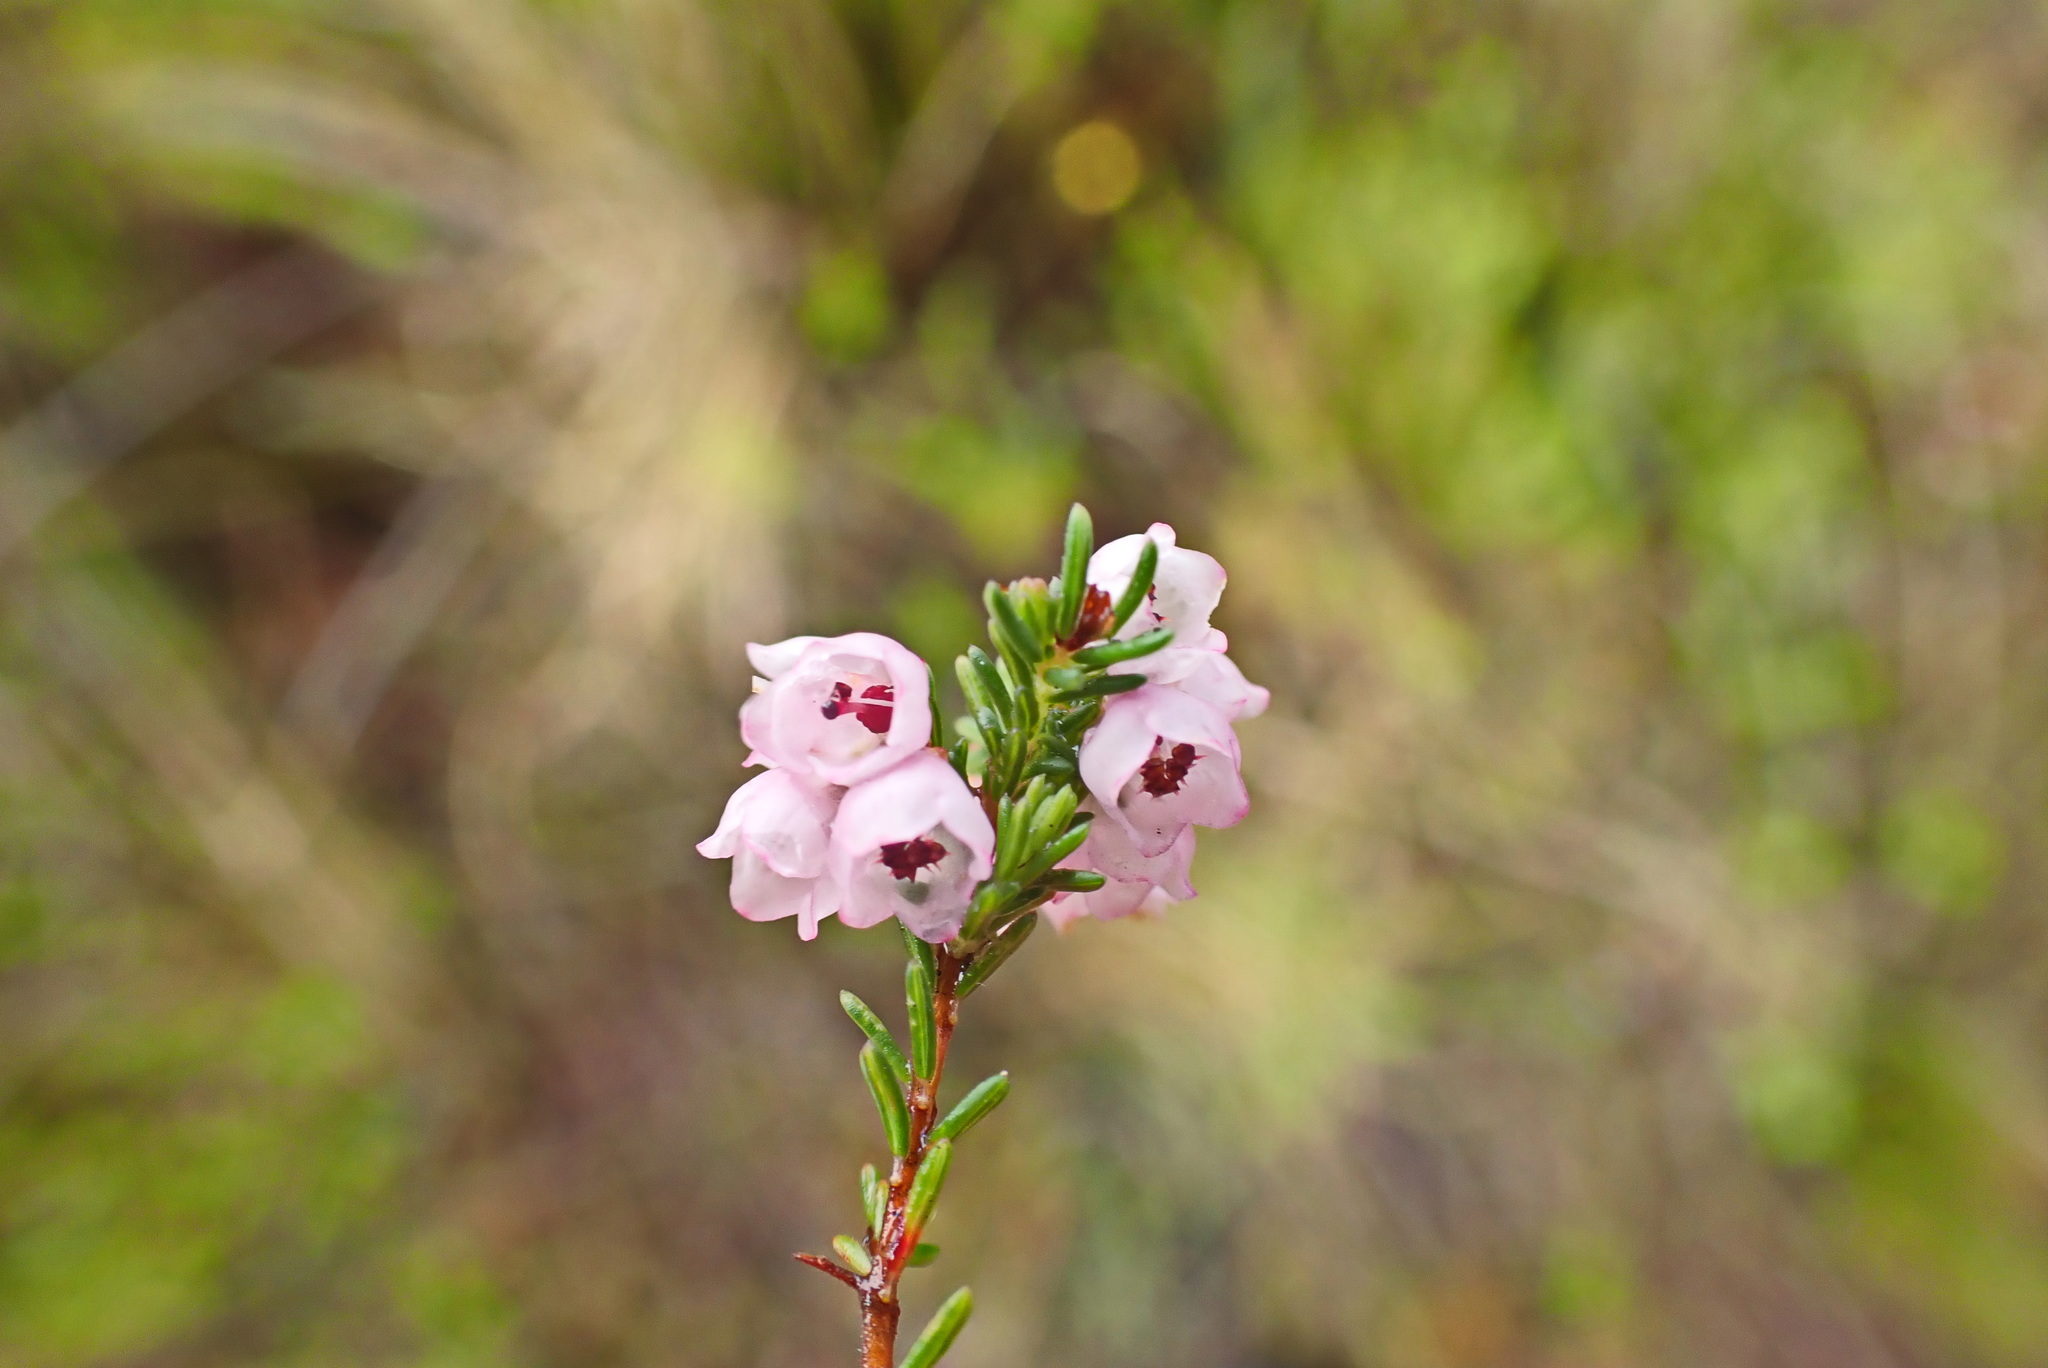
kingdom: Plantae
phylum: Tracheophyta
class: Magnoliopsida
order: Ericales
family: Ericaceae
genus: Erica
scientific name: Erica quadrangularis
